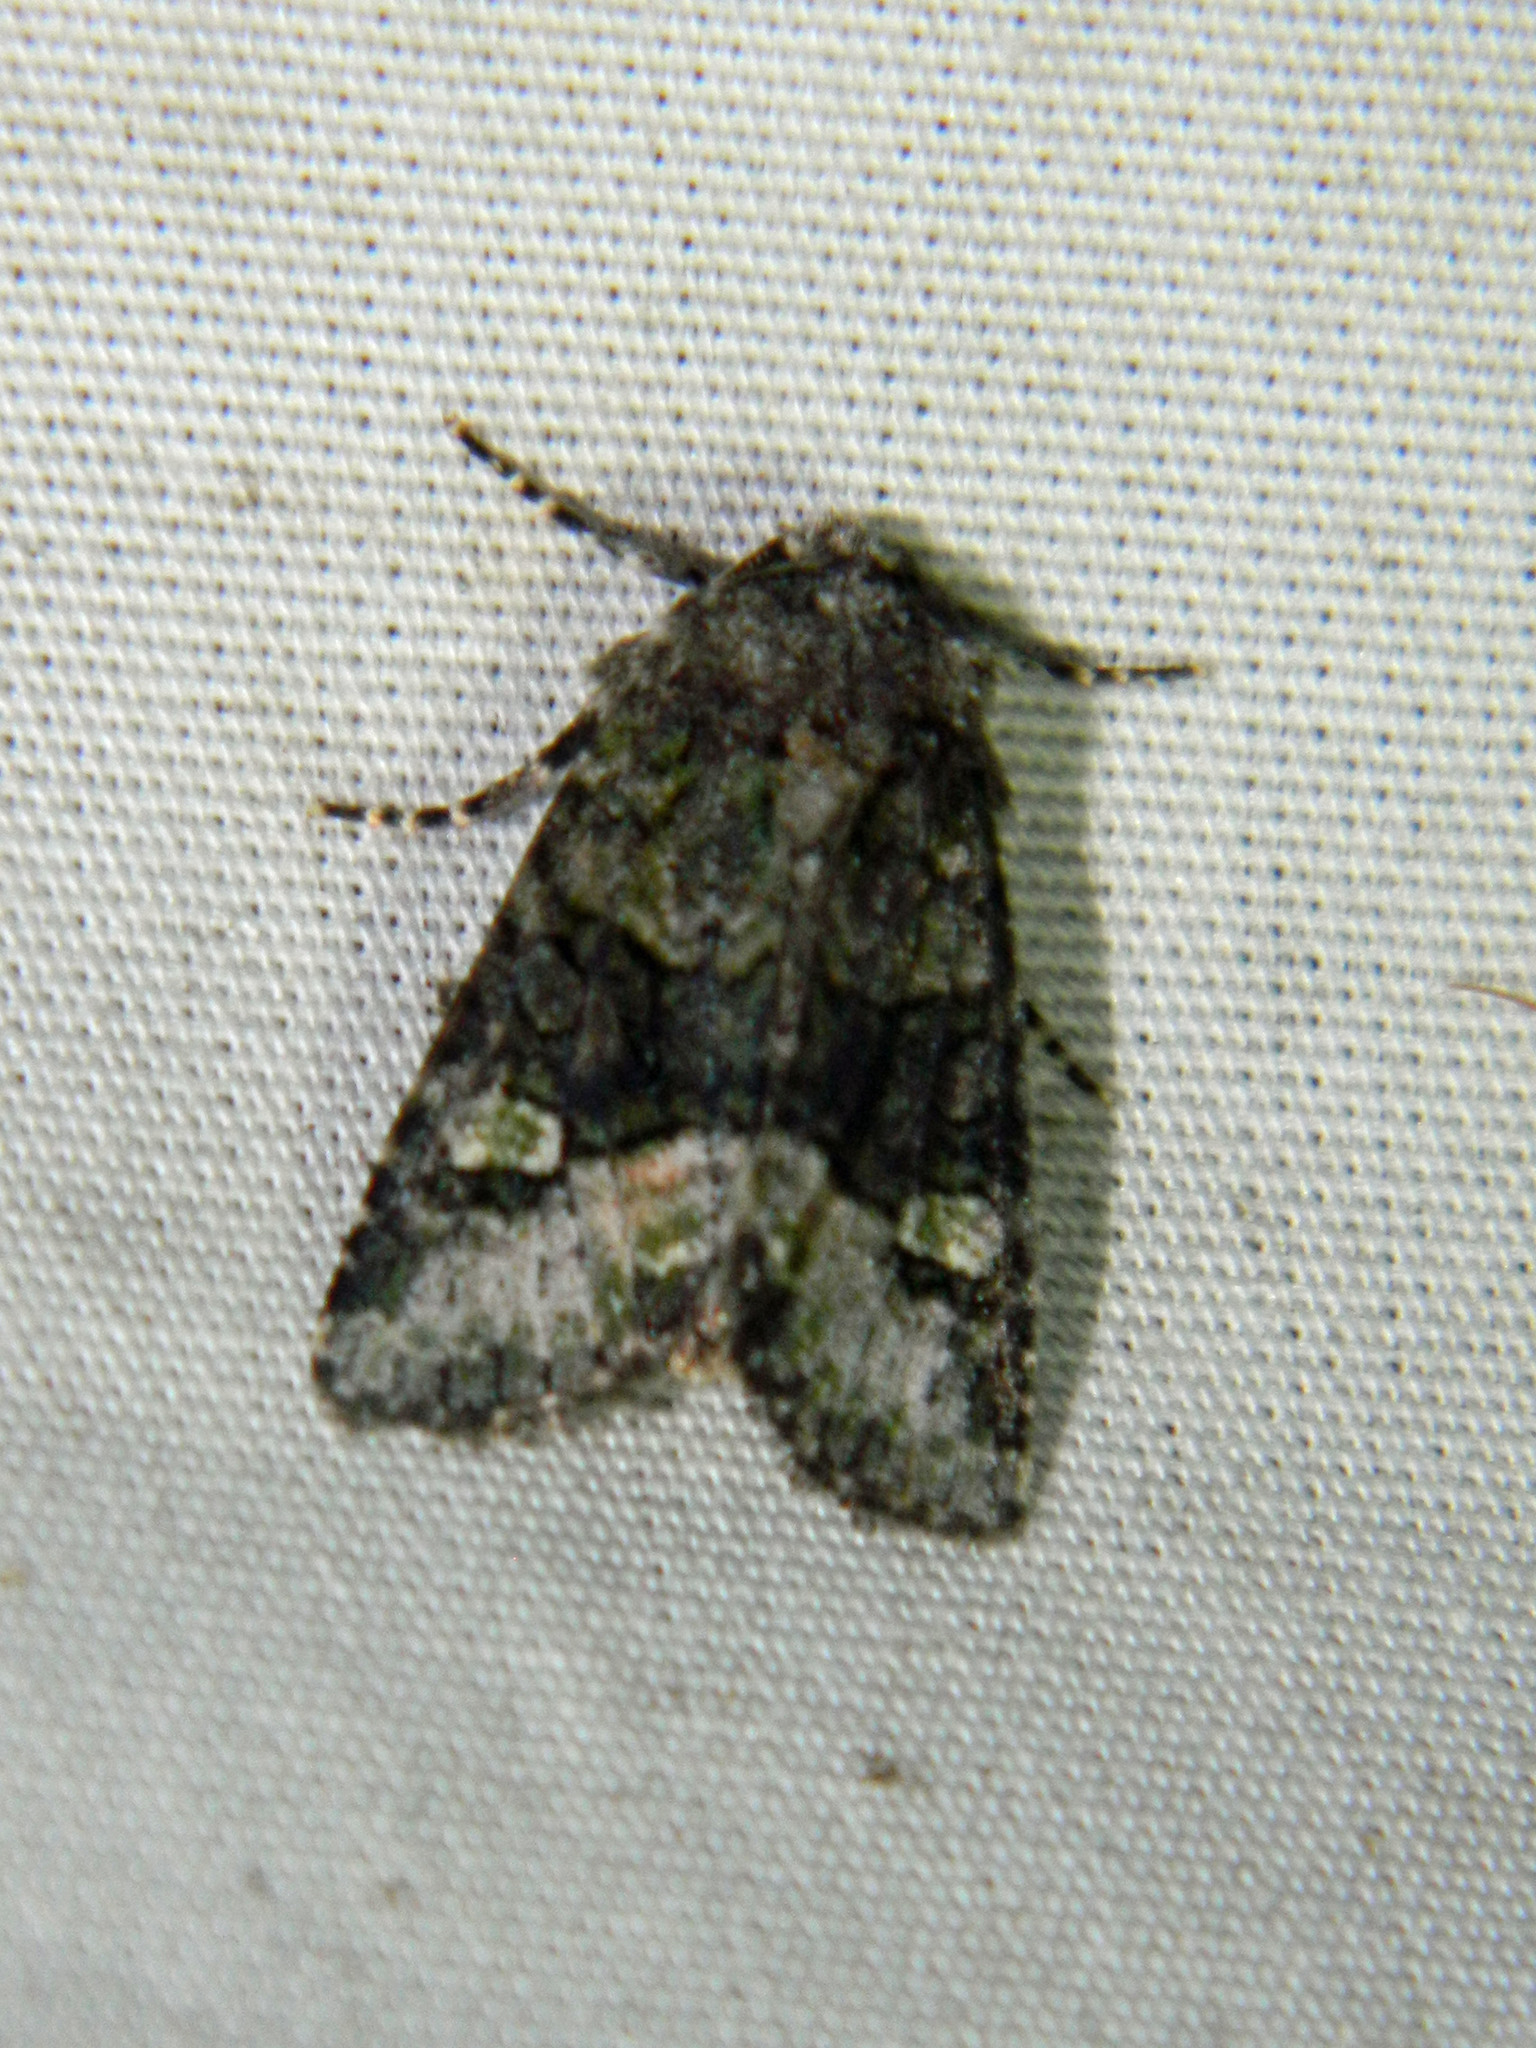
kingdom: Animalia
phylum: Arthropoda
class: Insecta
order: Lepidoptera
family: Noctuidae
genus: Lacinipolia
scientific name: Lacinipolia olivacea
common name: Olive arches moth
